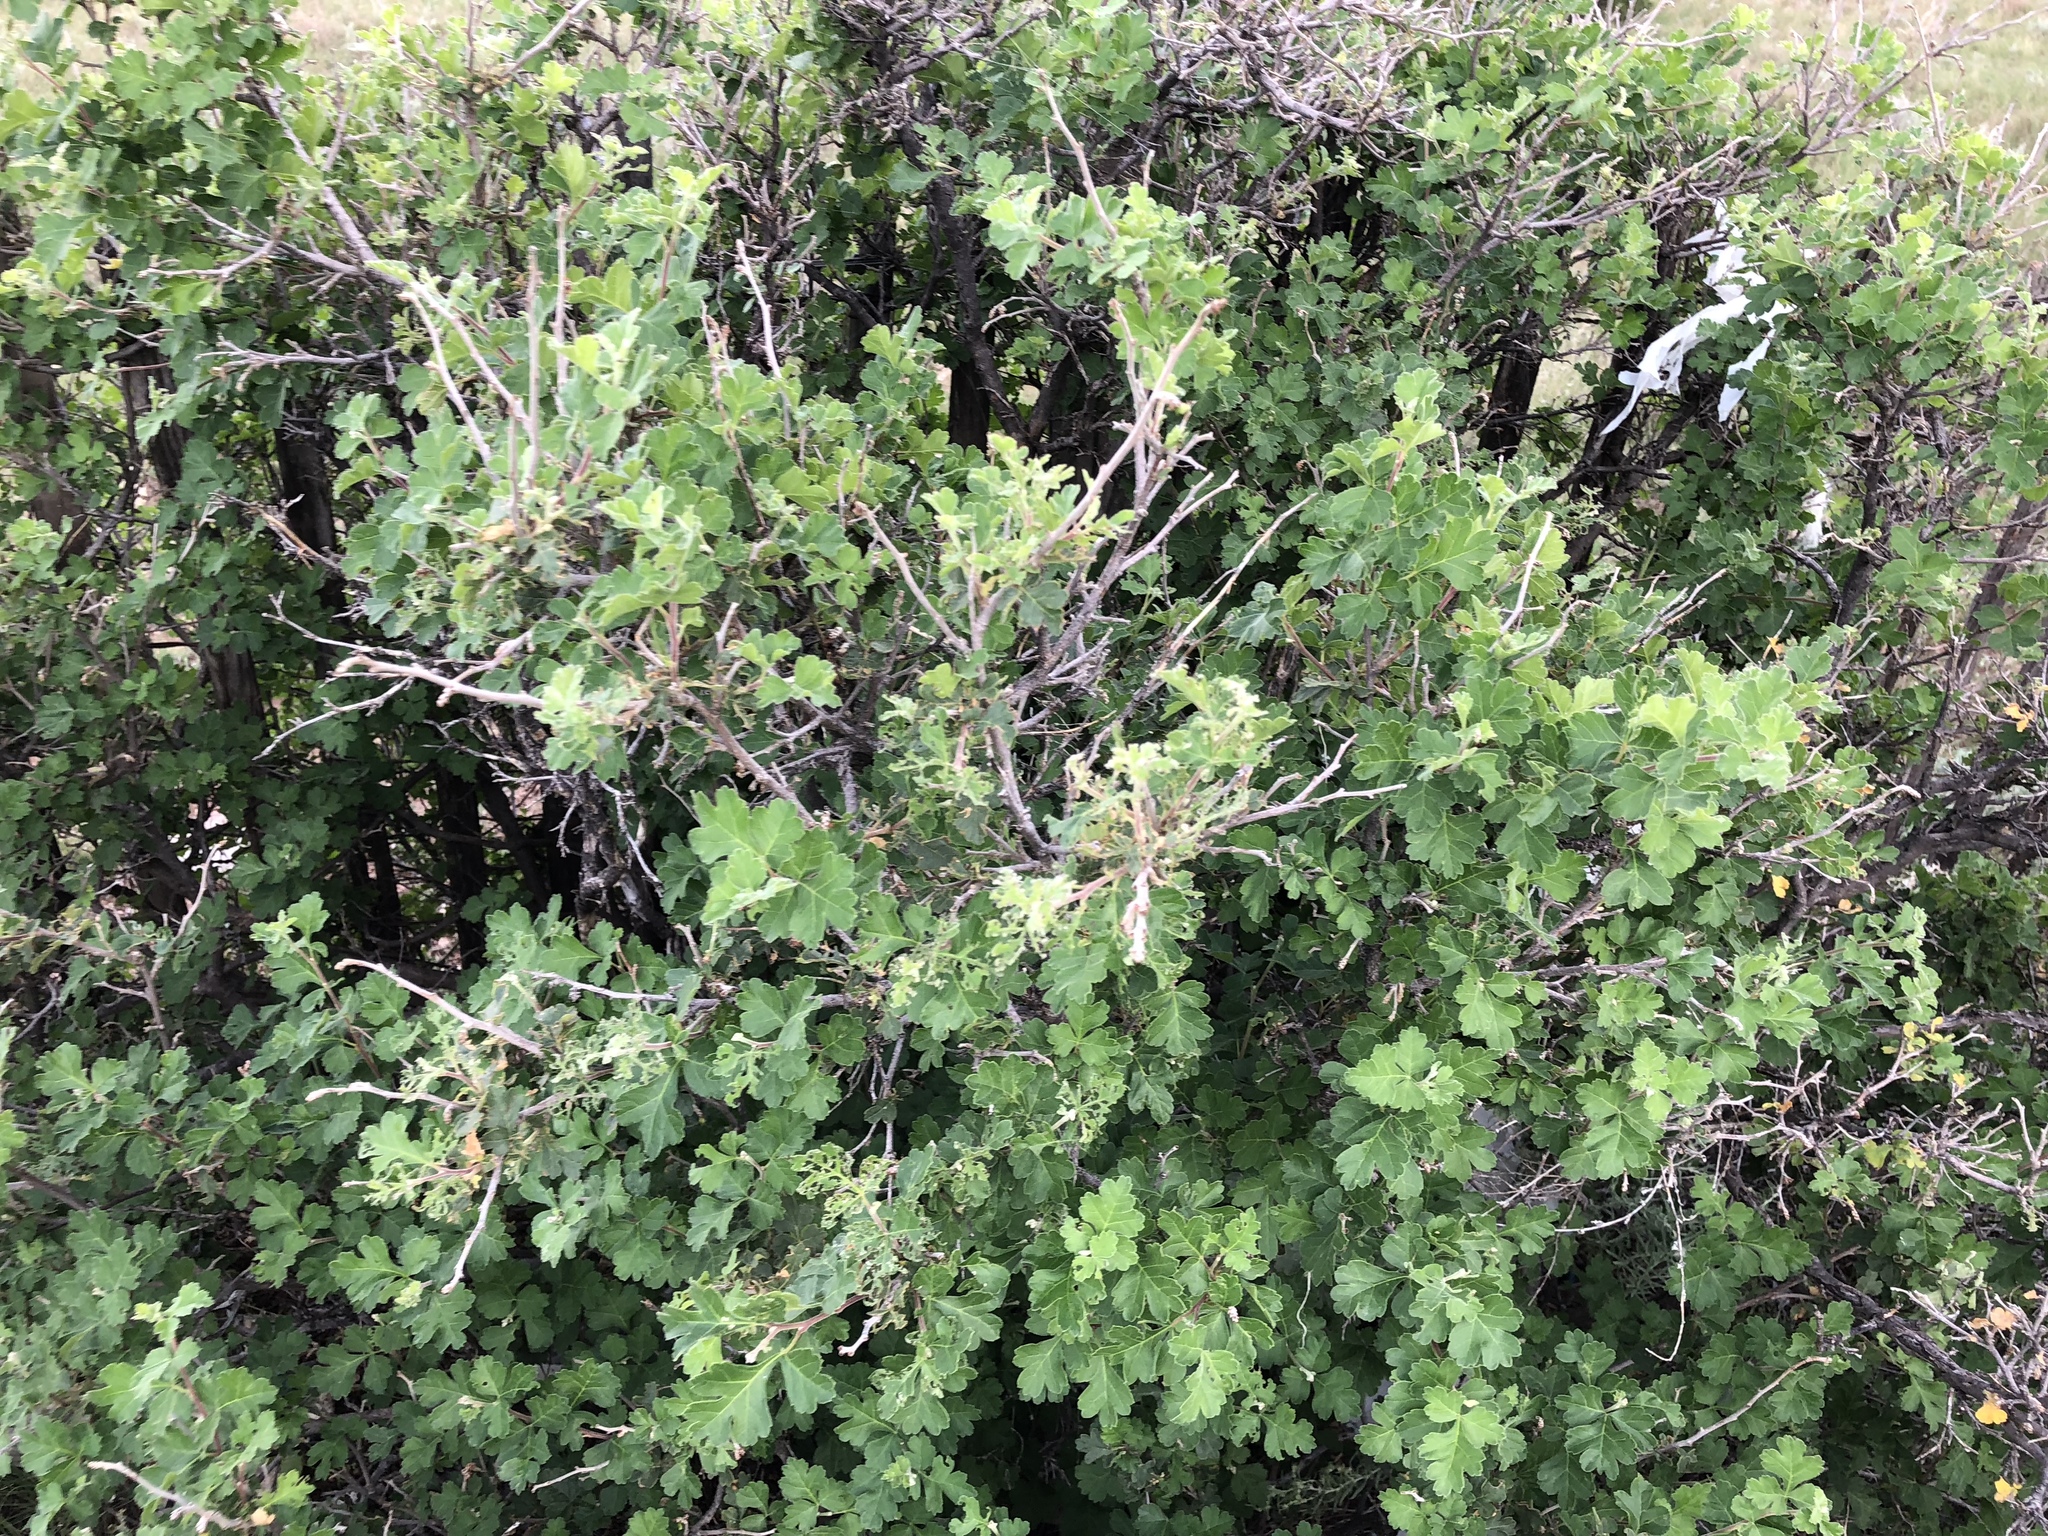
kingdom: Plantae
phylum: Tracheophyta
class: Magnoliopsida
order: Sapindales
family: Anacardiaceae
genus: Rhus
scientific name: Rhus aromatica
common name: Aromatic sumac
